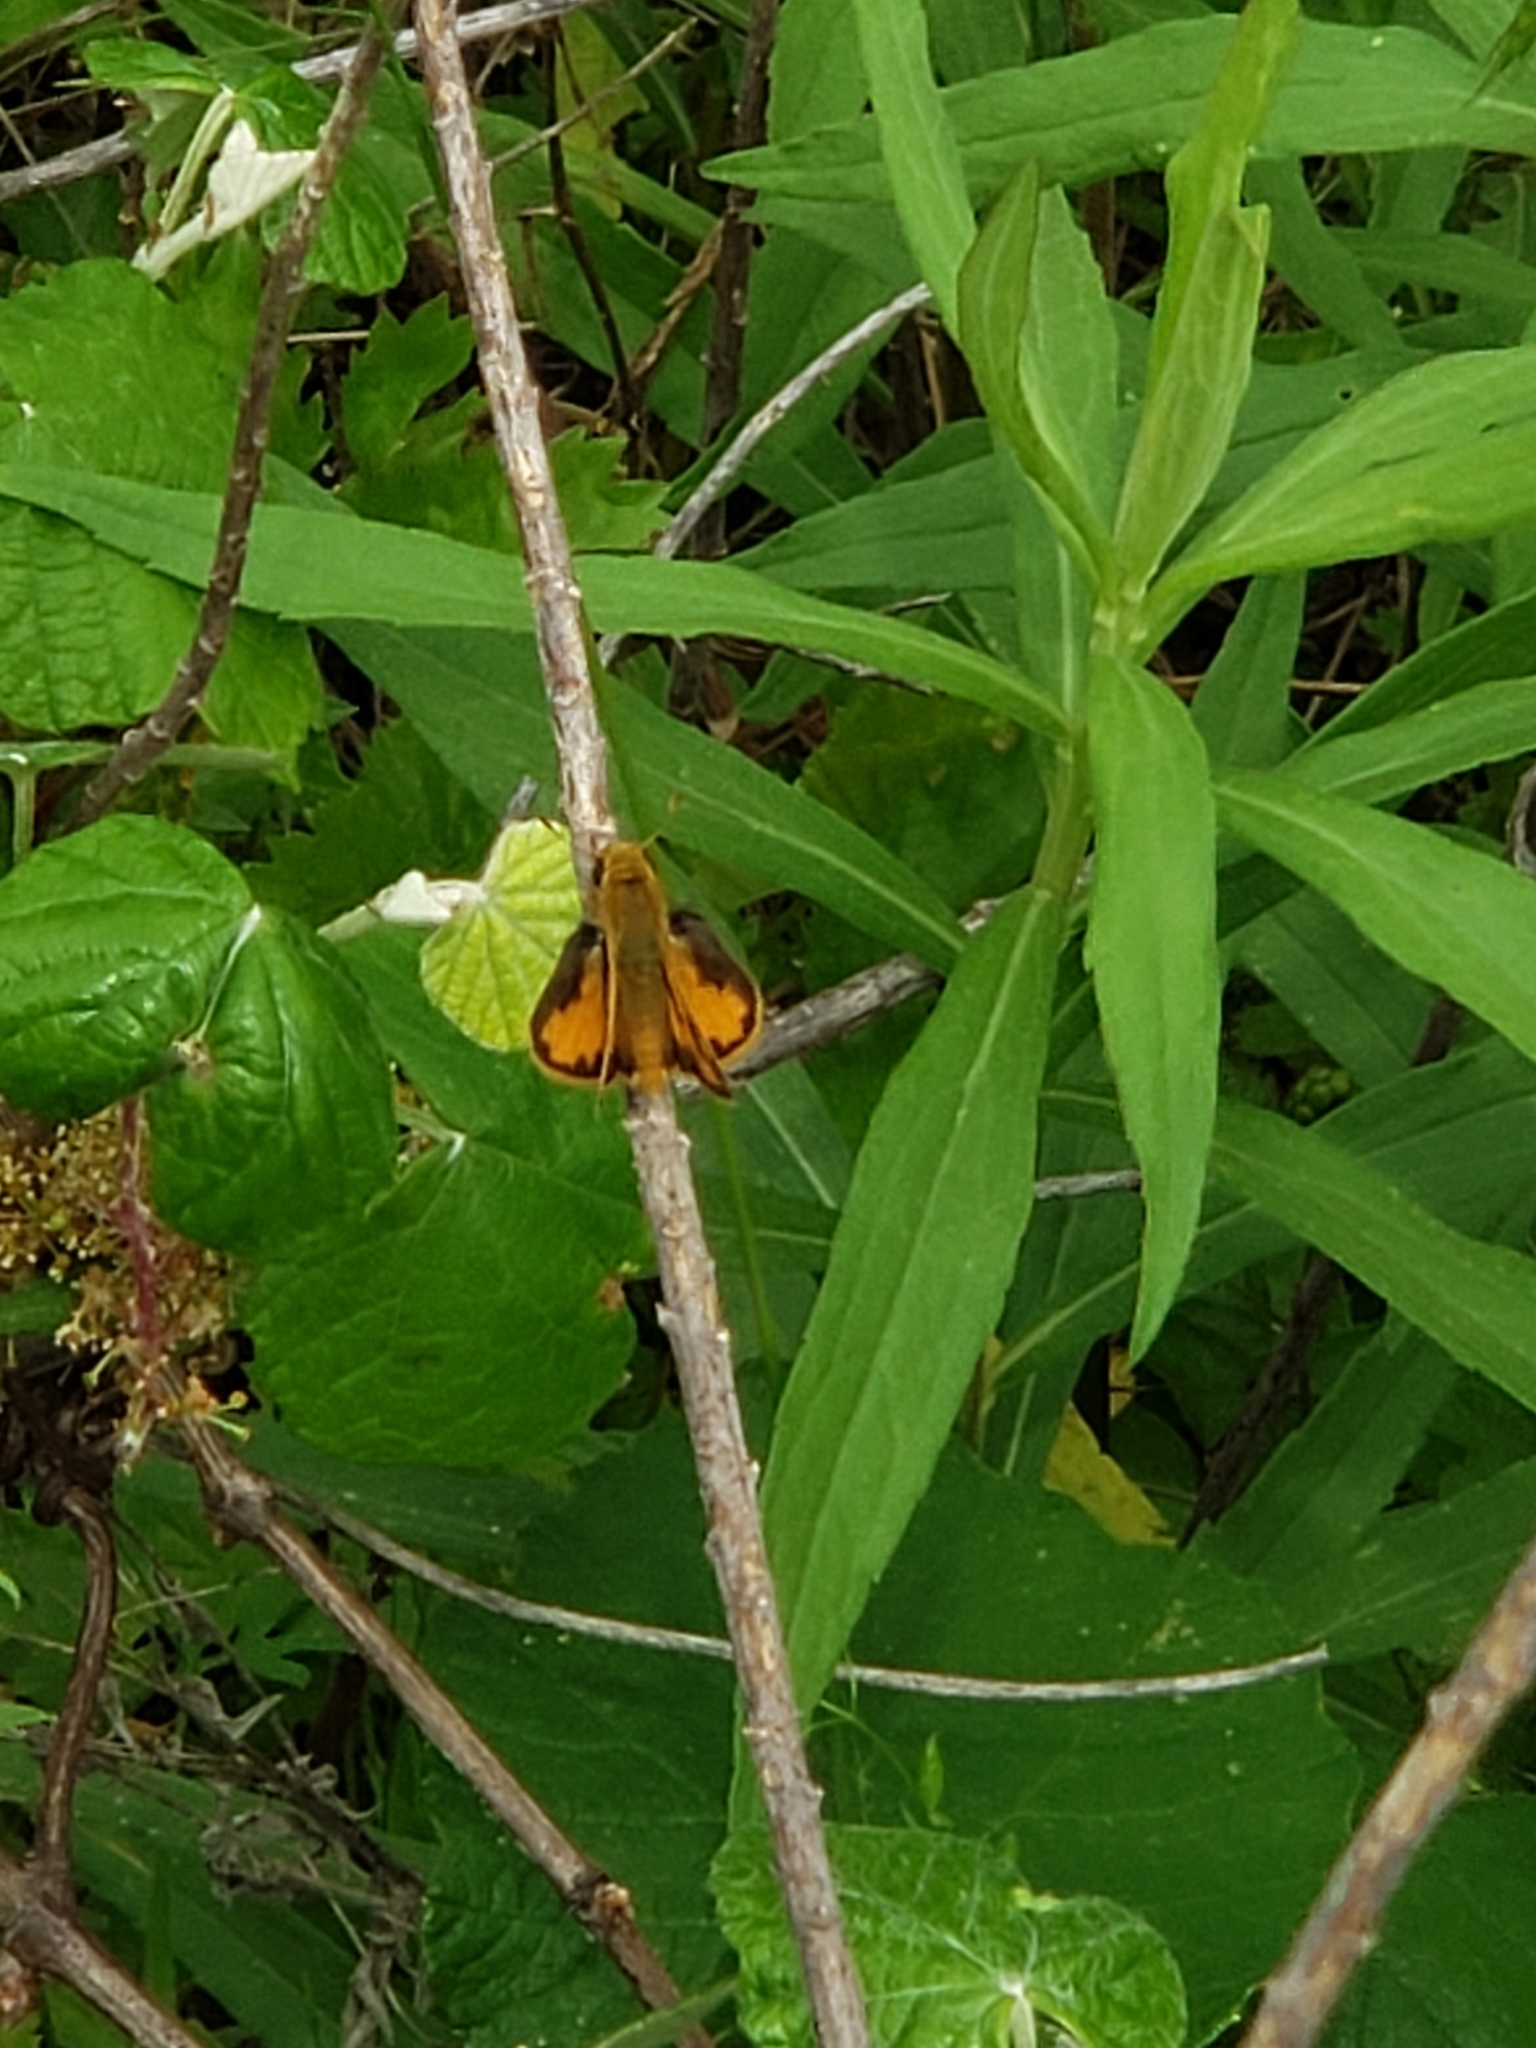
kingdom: Animalia
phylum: Arthropoda
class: Insecta
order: Lepidoptera
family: Hesperiidae
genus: Hylephila
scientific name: Hylephila phyleus
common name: Fiery skipper
